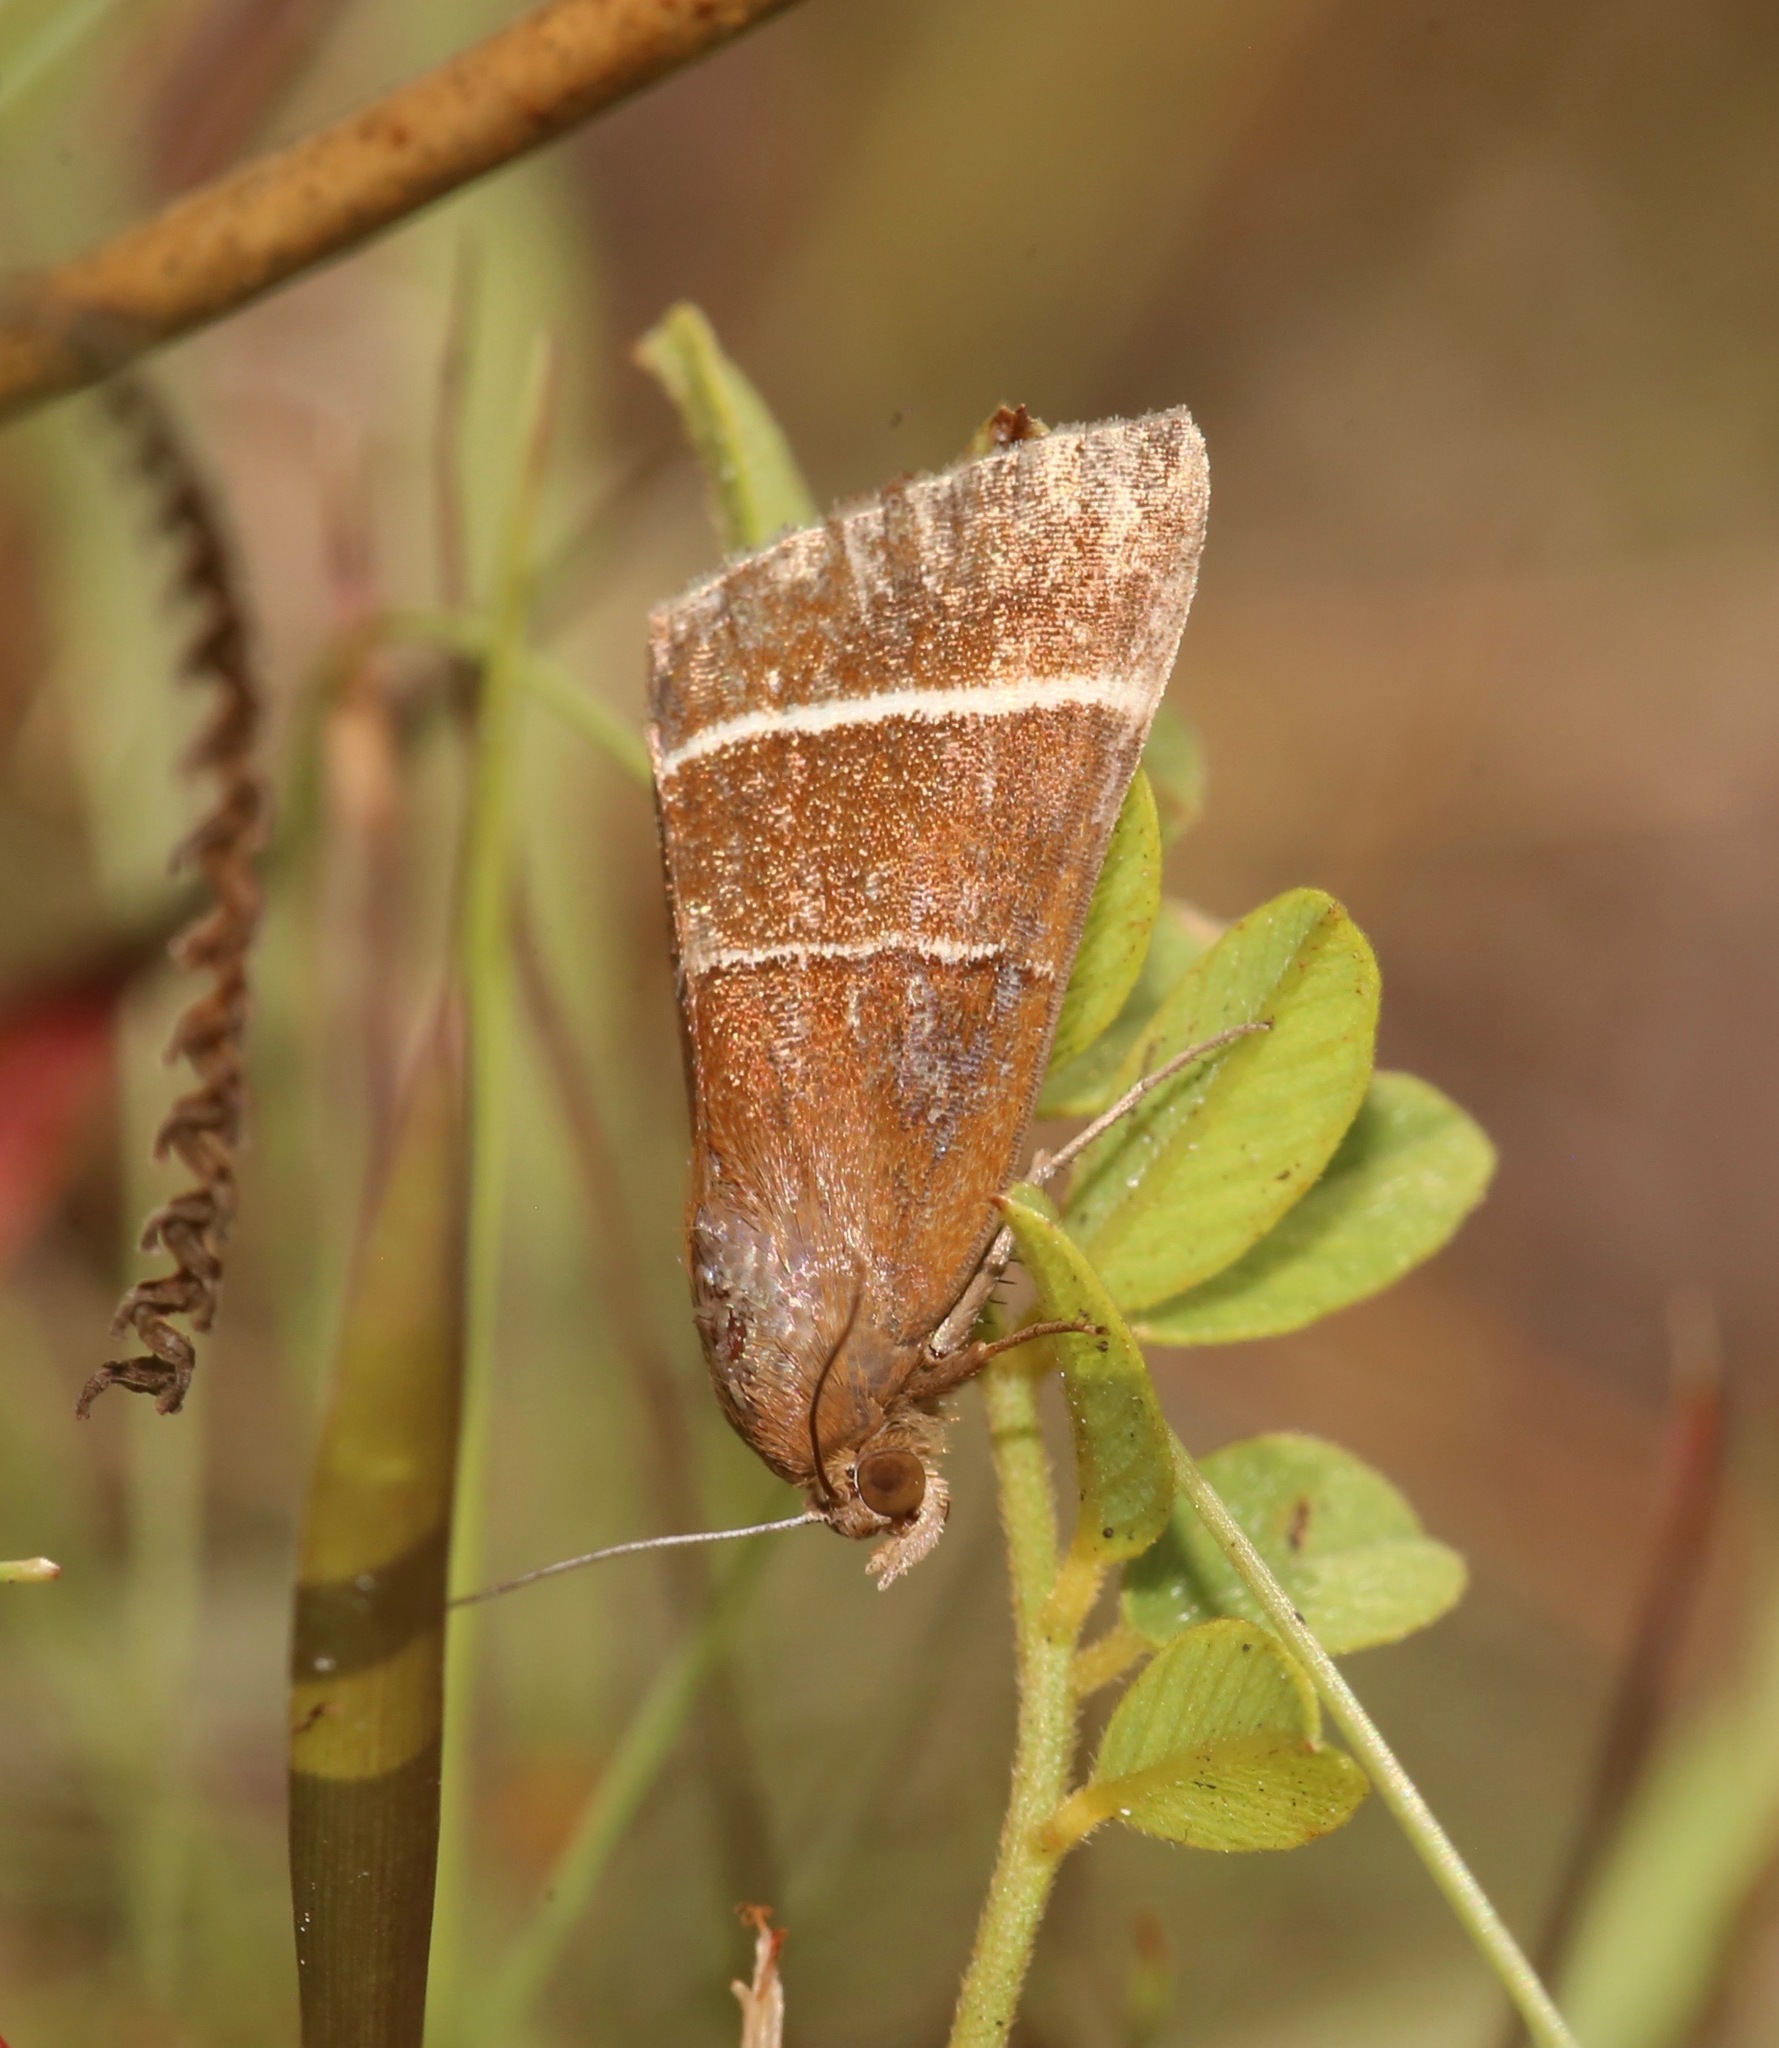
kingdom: Animalia
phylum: Arthropoda
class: Insecta
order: Lepidoptera
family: Erebidae
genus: Argyrostrotis
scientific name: Argyrostrotis quadrifilaris
